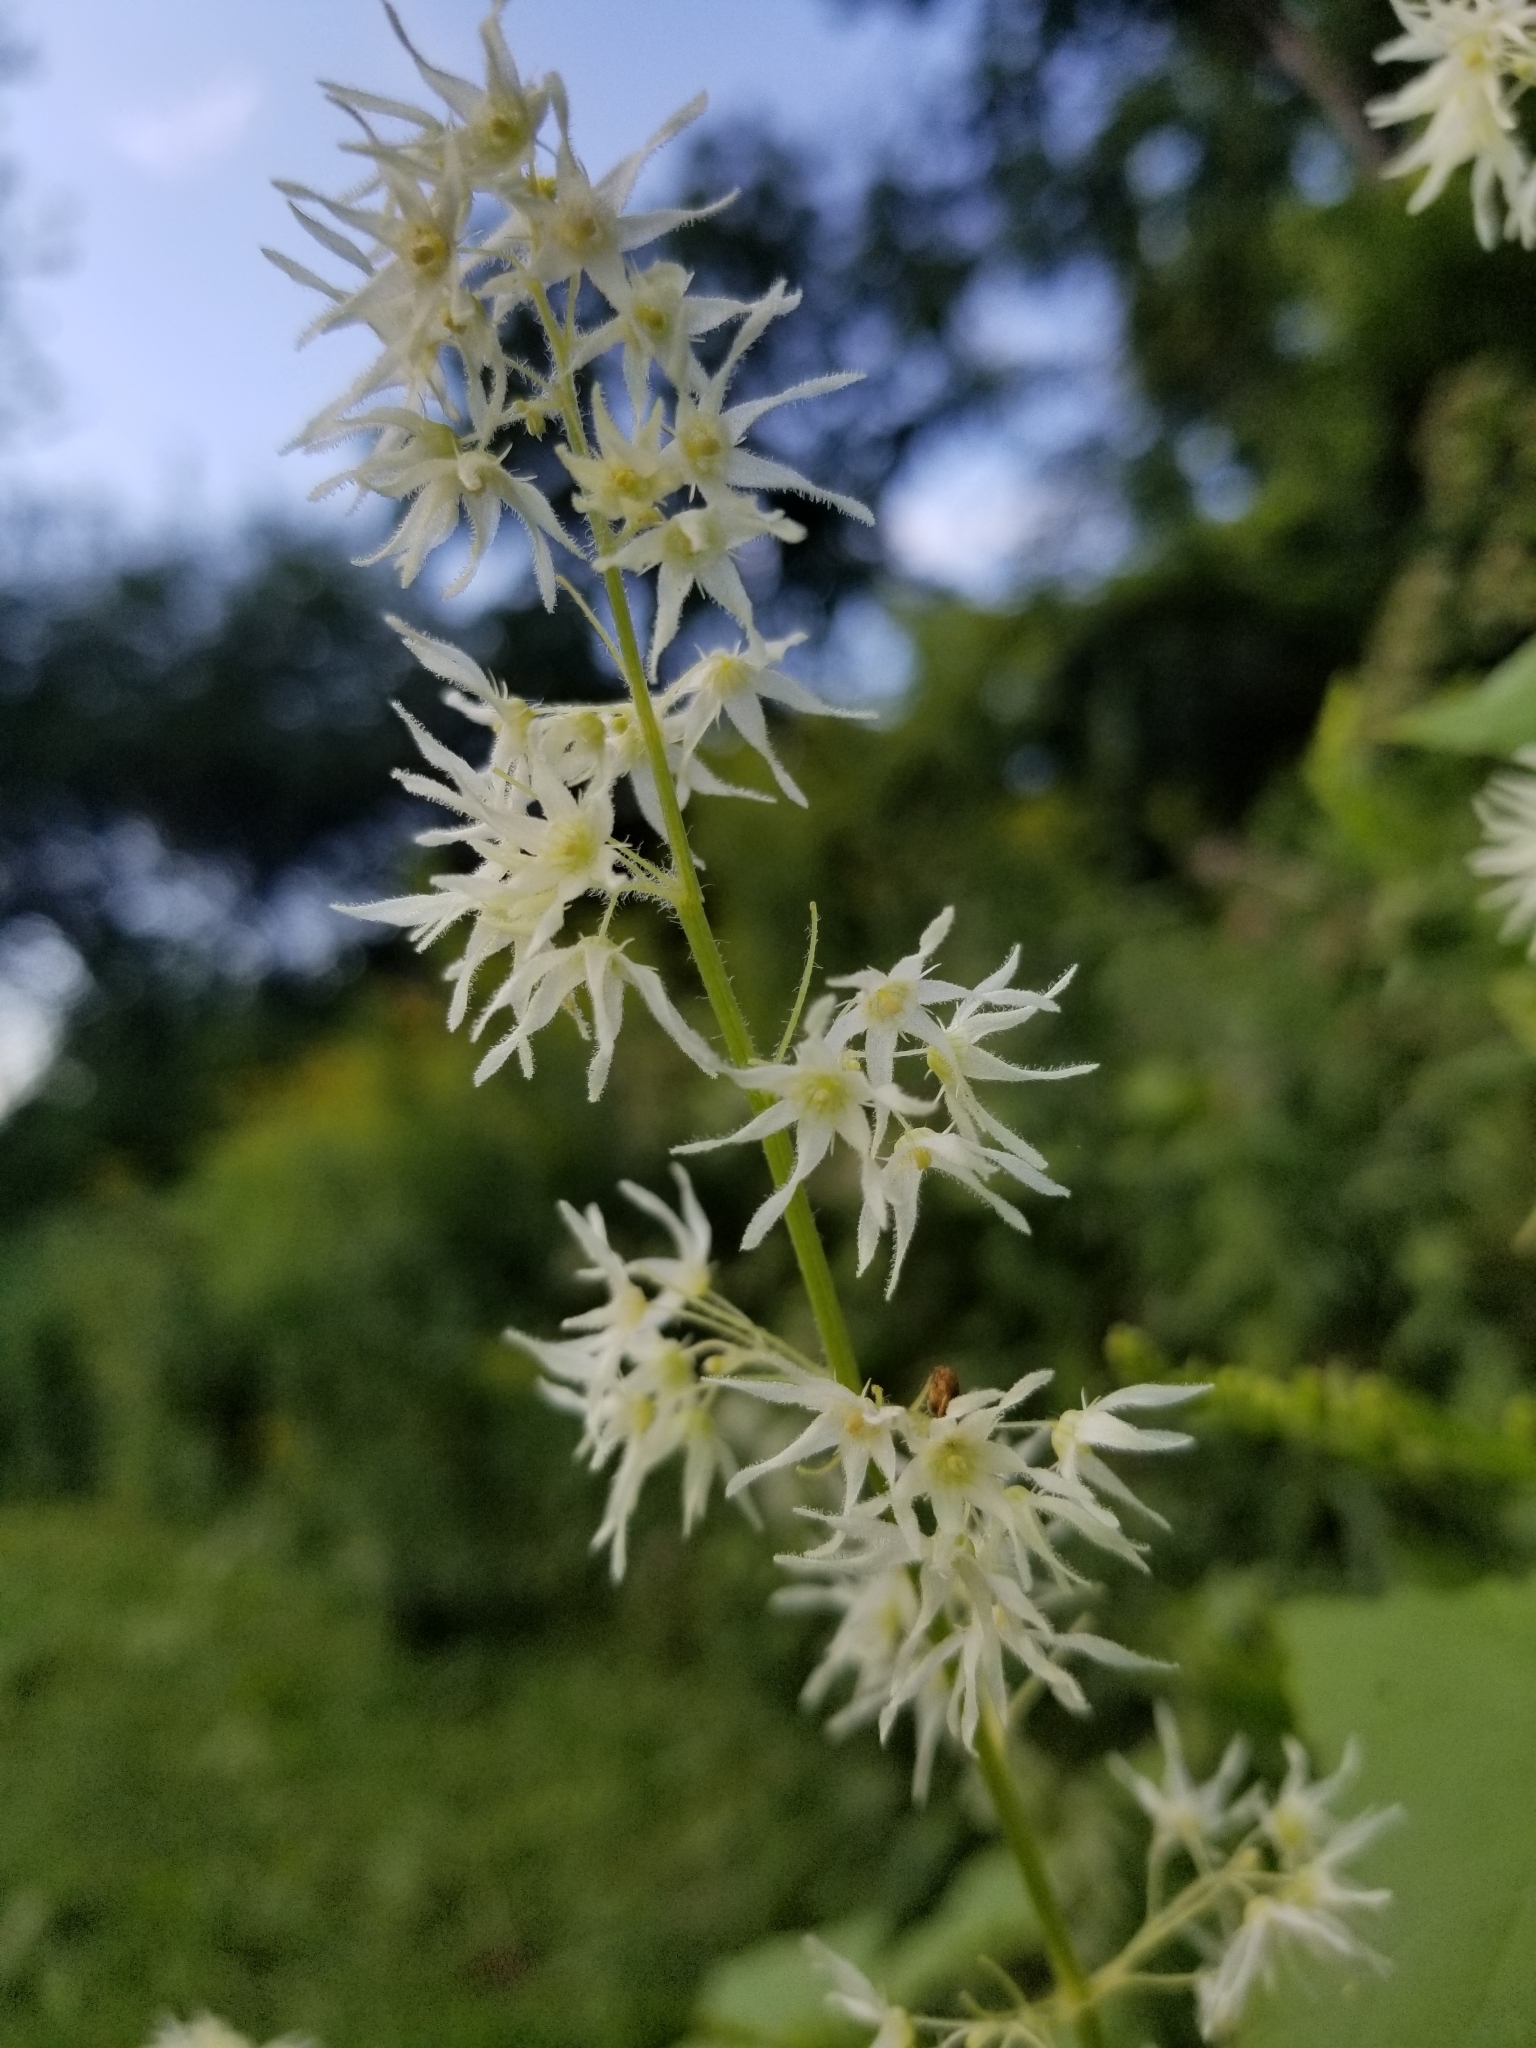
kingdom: Plantae
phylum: Tracheophyta
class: Magnoliopsida
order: Cucurbitales
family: Cucurbitaceae
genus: Echinocystis
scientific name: Echinocystis lobata
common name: Wild cucumber
